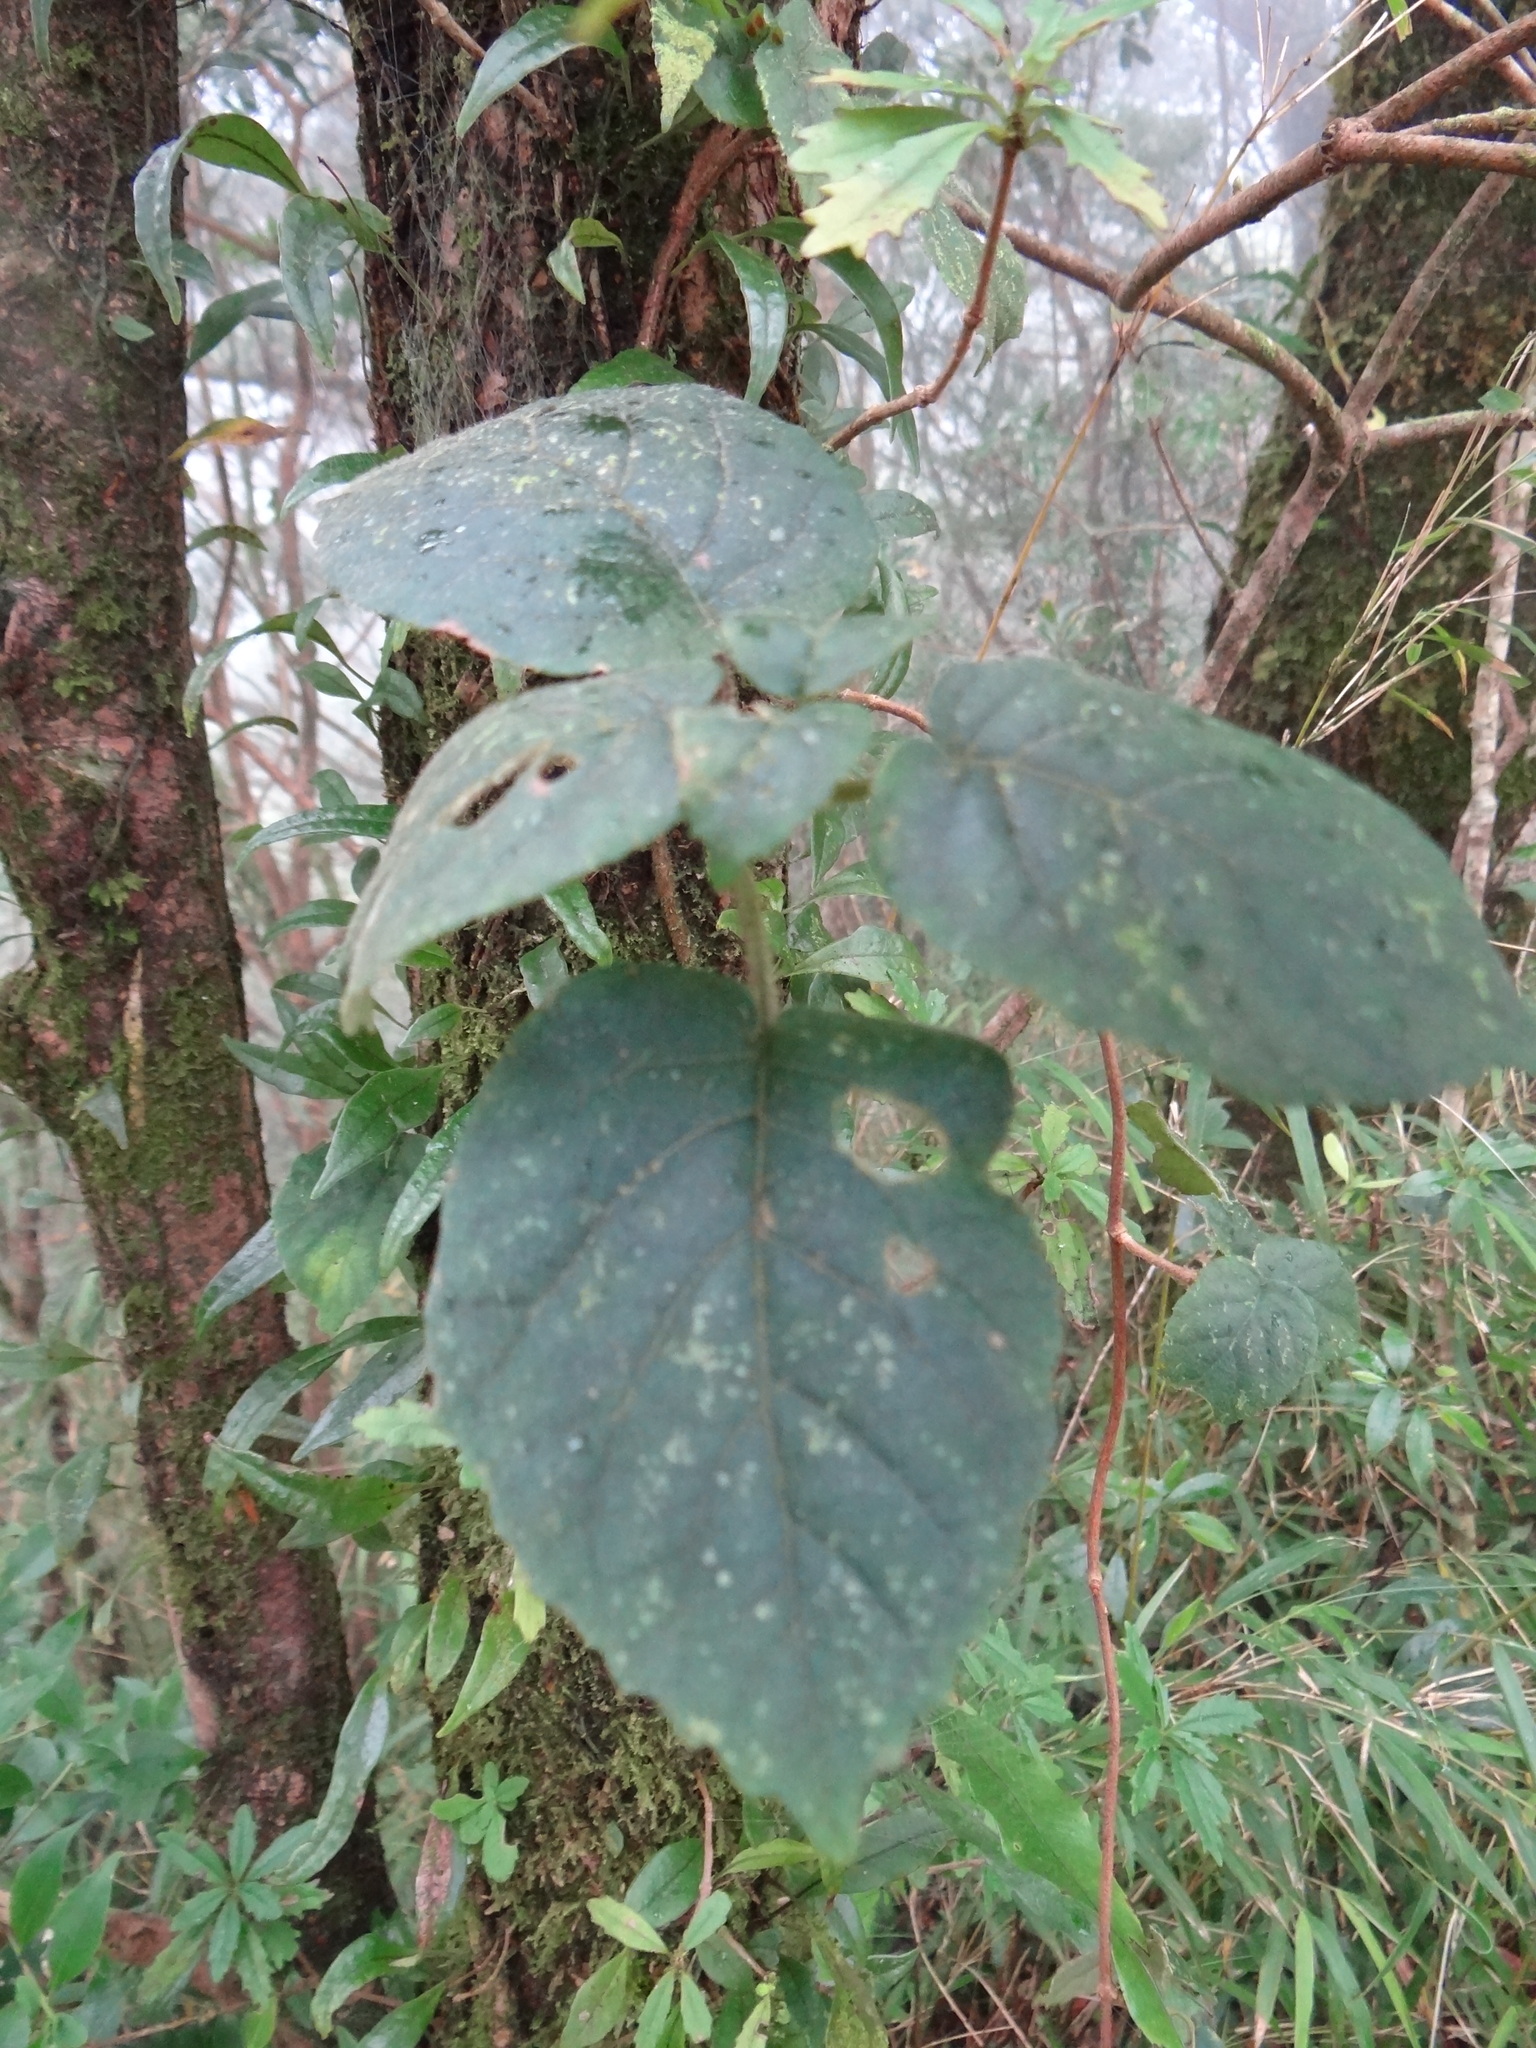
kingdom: Plantae
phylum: Tracheophyta
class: Magnoliopsida
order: Cornales
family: Hydrangeaceae
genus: Hydrangea
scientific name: Hydrangea fauriei
